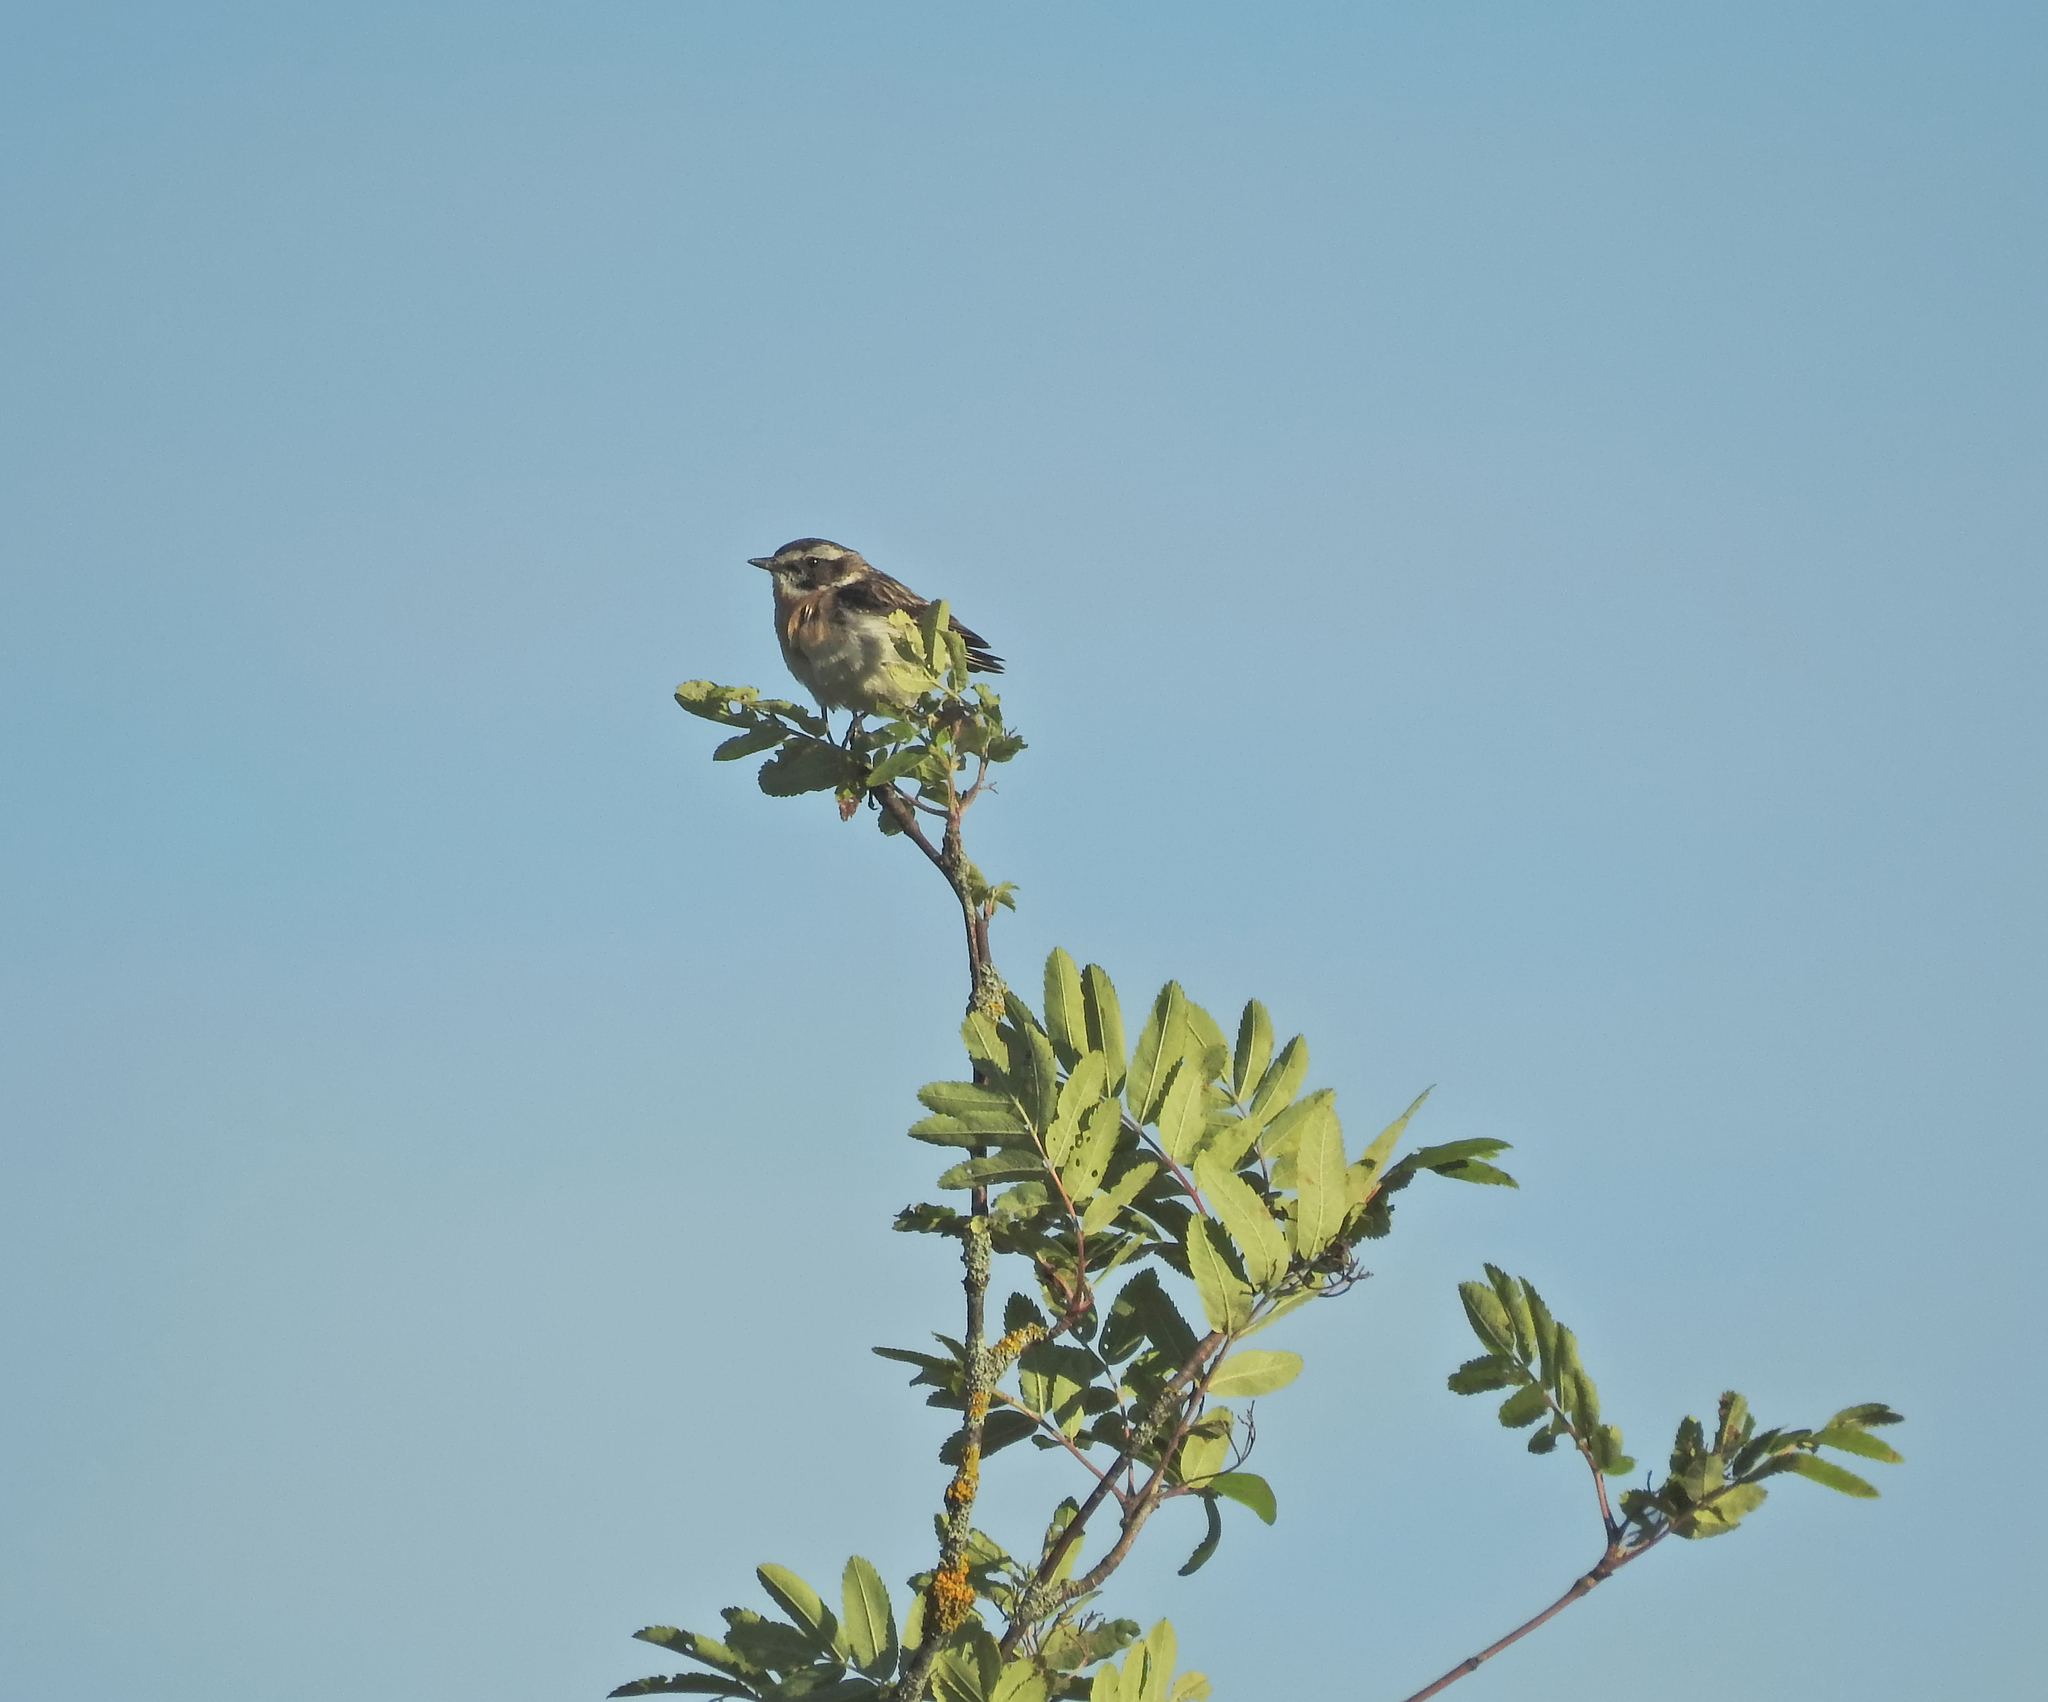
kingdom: Animalia
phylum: Chordata
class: Aves
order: Passeriformes
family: Muscicapidae
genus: Saxicola
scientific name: Saxicola rubetra
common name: Whinchat
